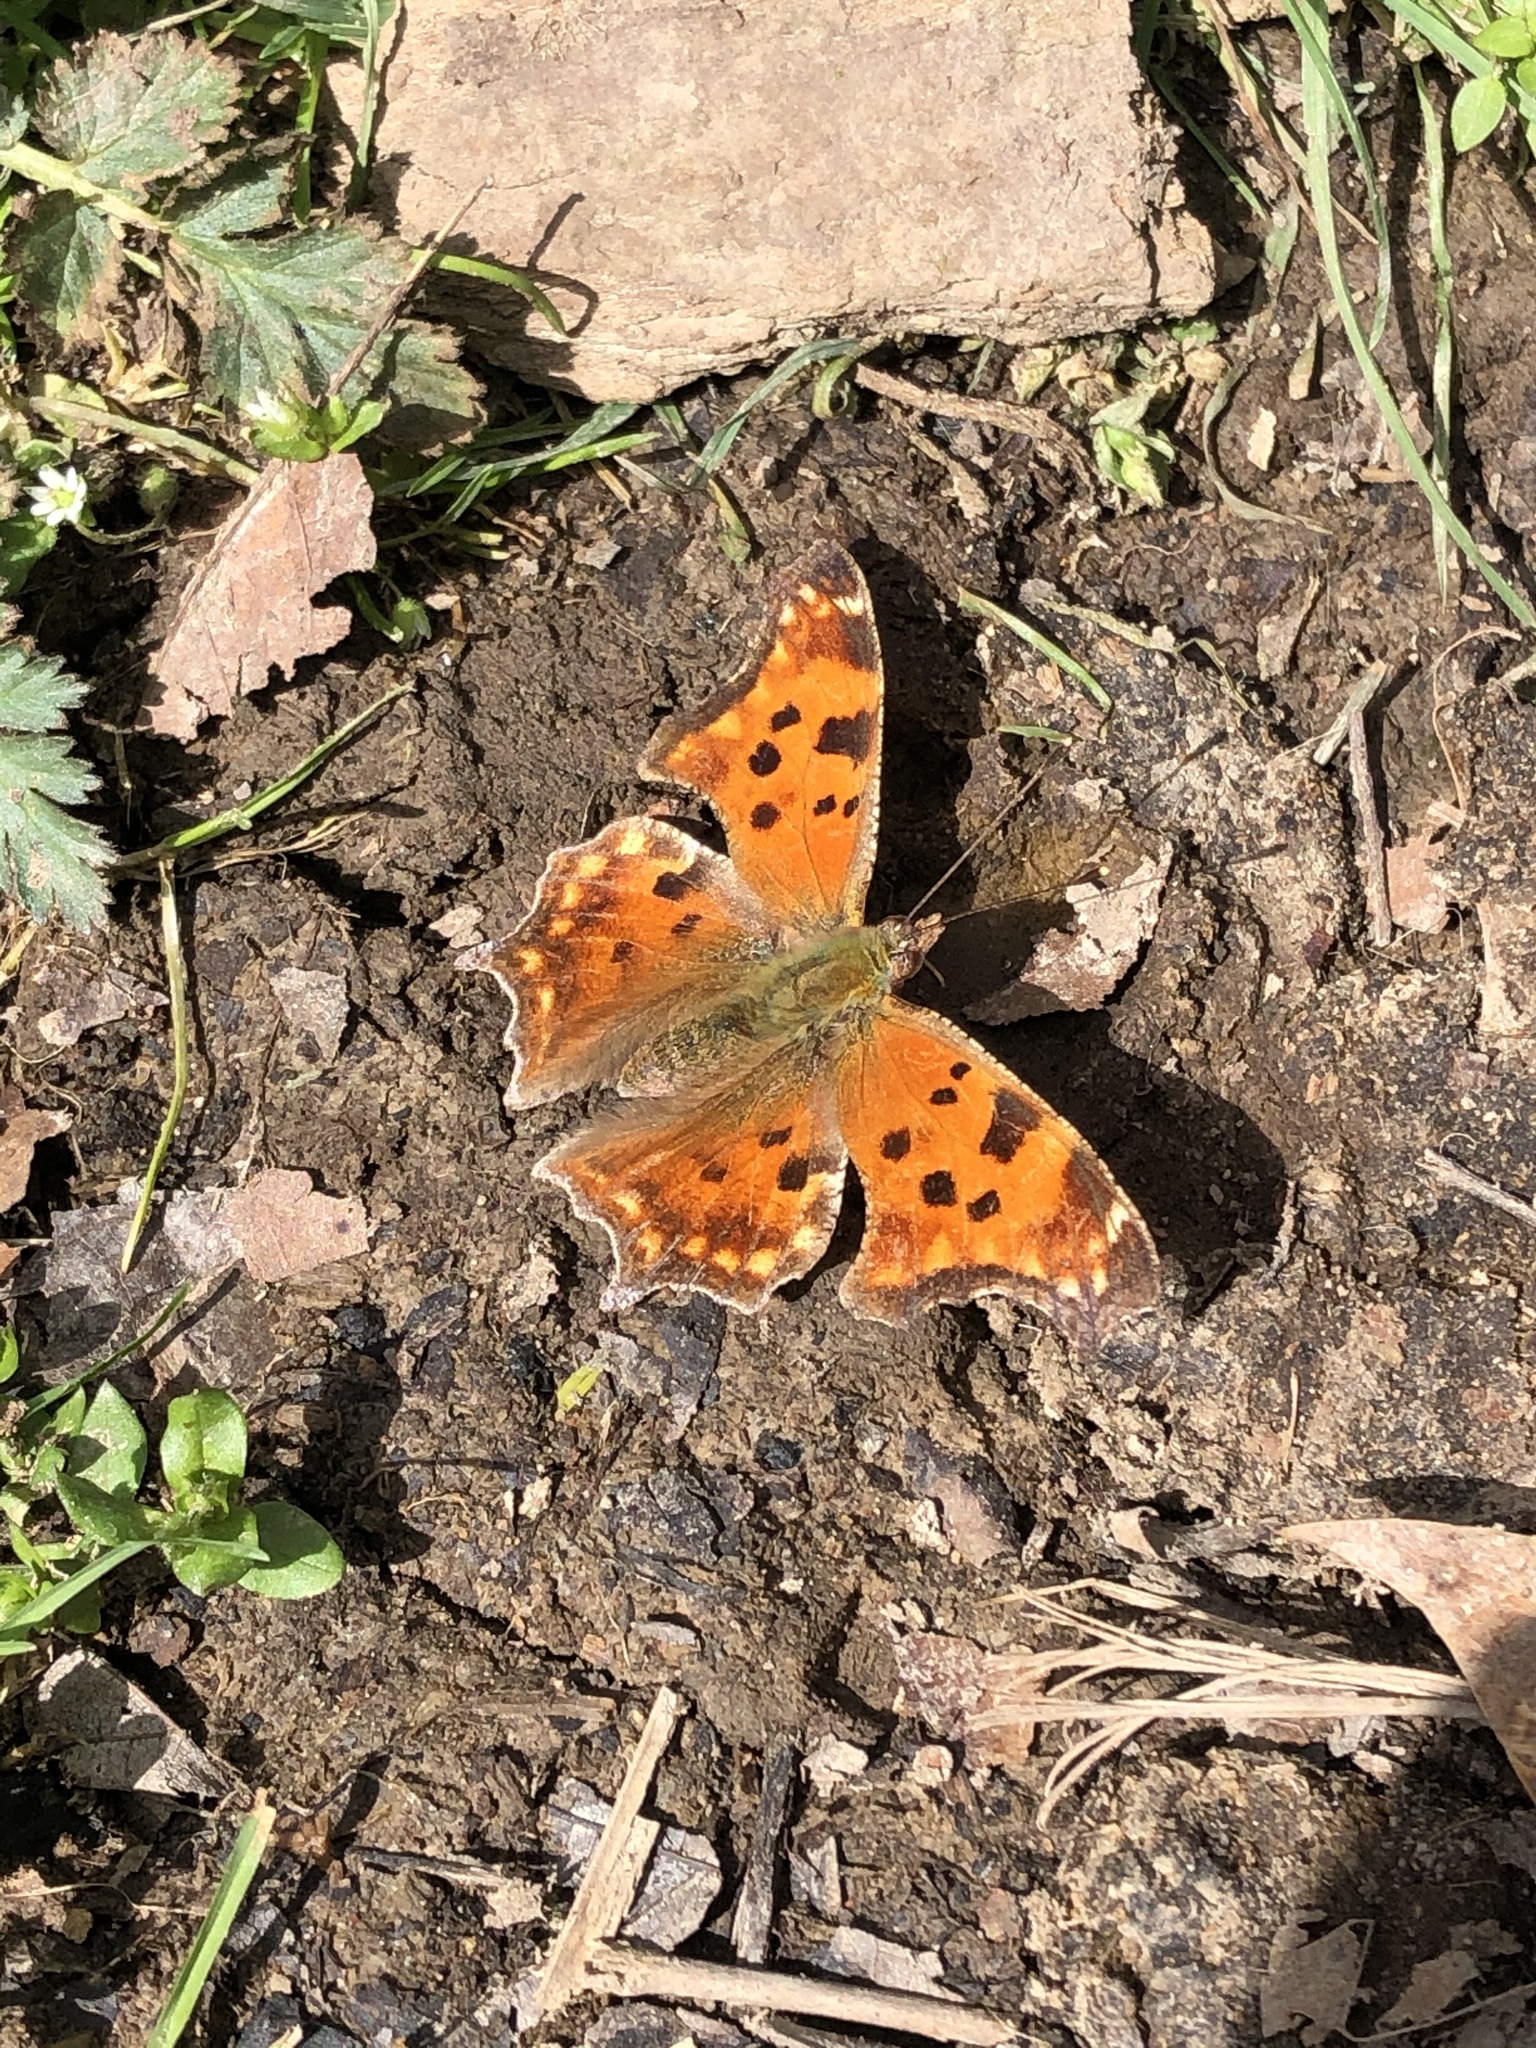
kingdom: Animalia
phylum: Arthropoda
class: Insecta
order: Lepidoptera
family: Nymphalidae
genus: Polygonia
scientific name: Polygonia comma
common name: Eastern comma
